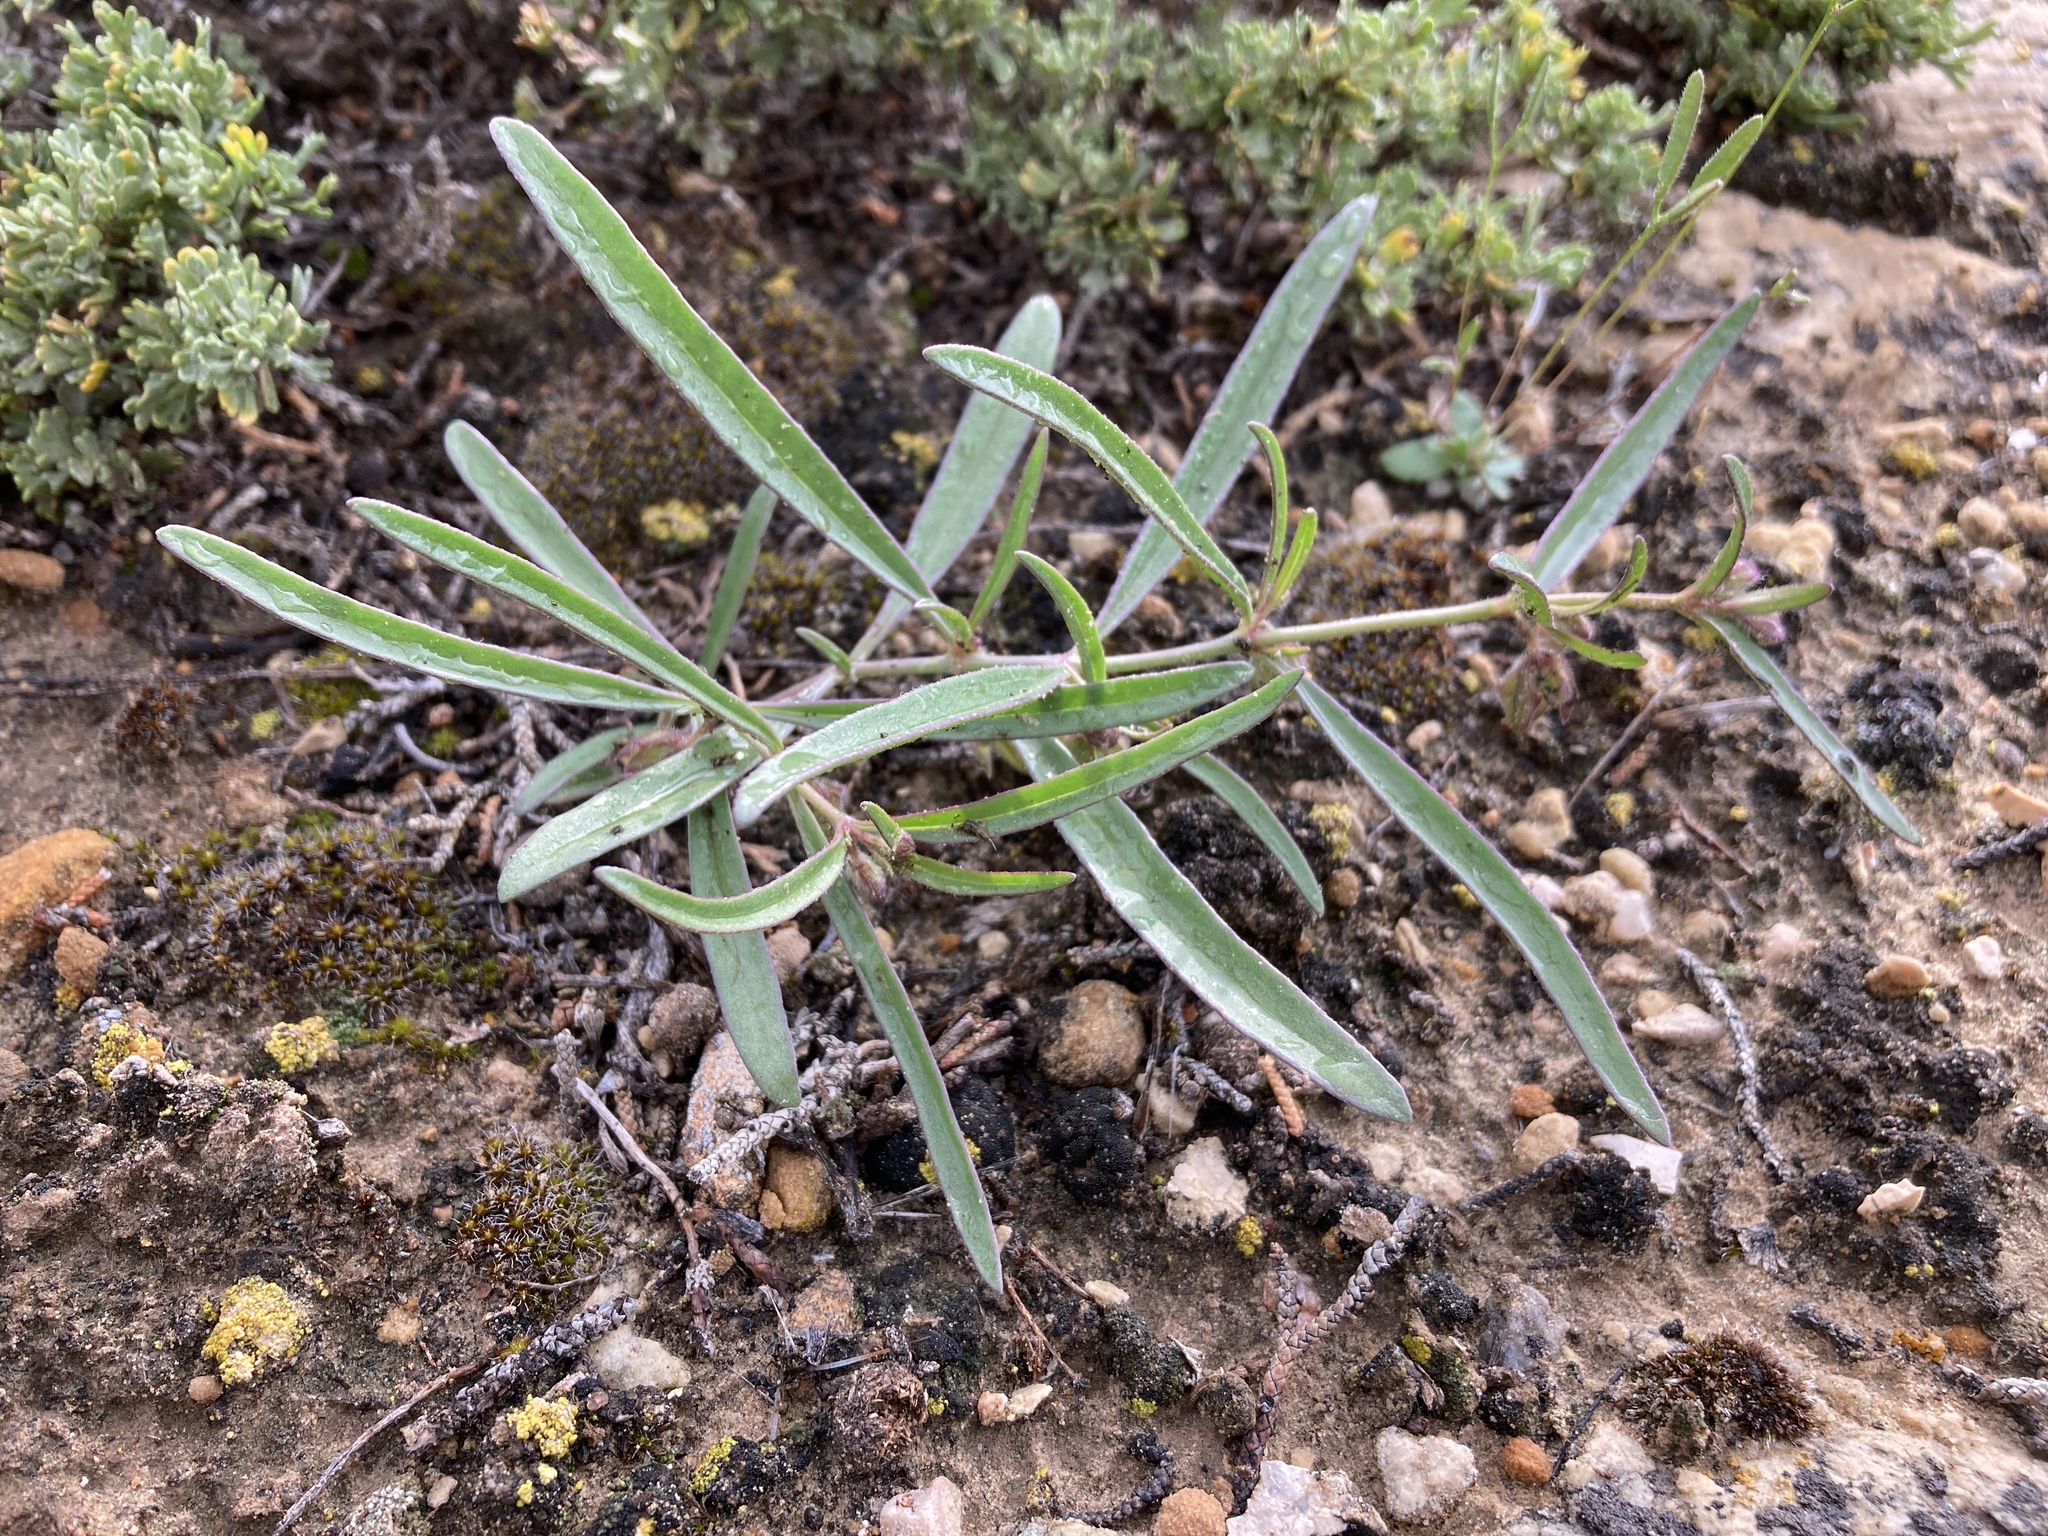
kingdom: Plantae
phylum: Tracheophyta
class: Magnoliopsida
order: Caryophyllales
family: Nyctaginaceae
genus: Mirabilis
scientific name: Mirabilis linearis
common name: Linear-leaved four-o'clock
